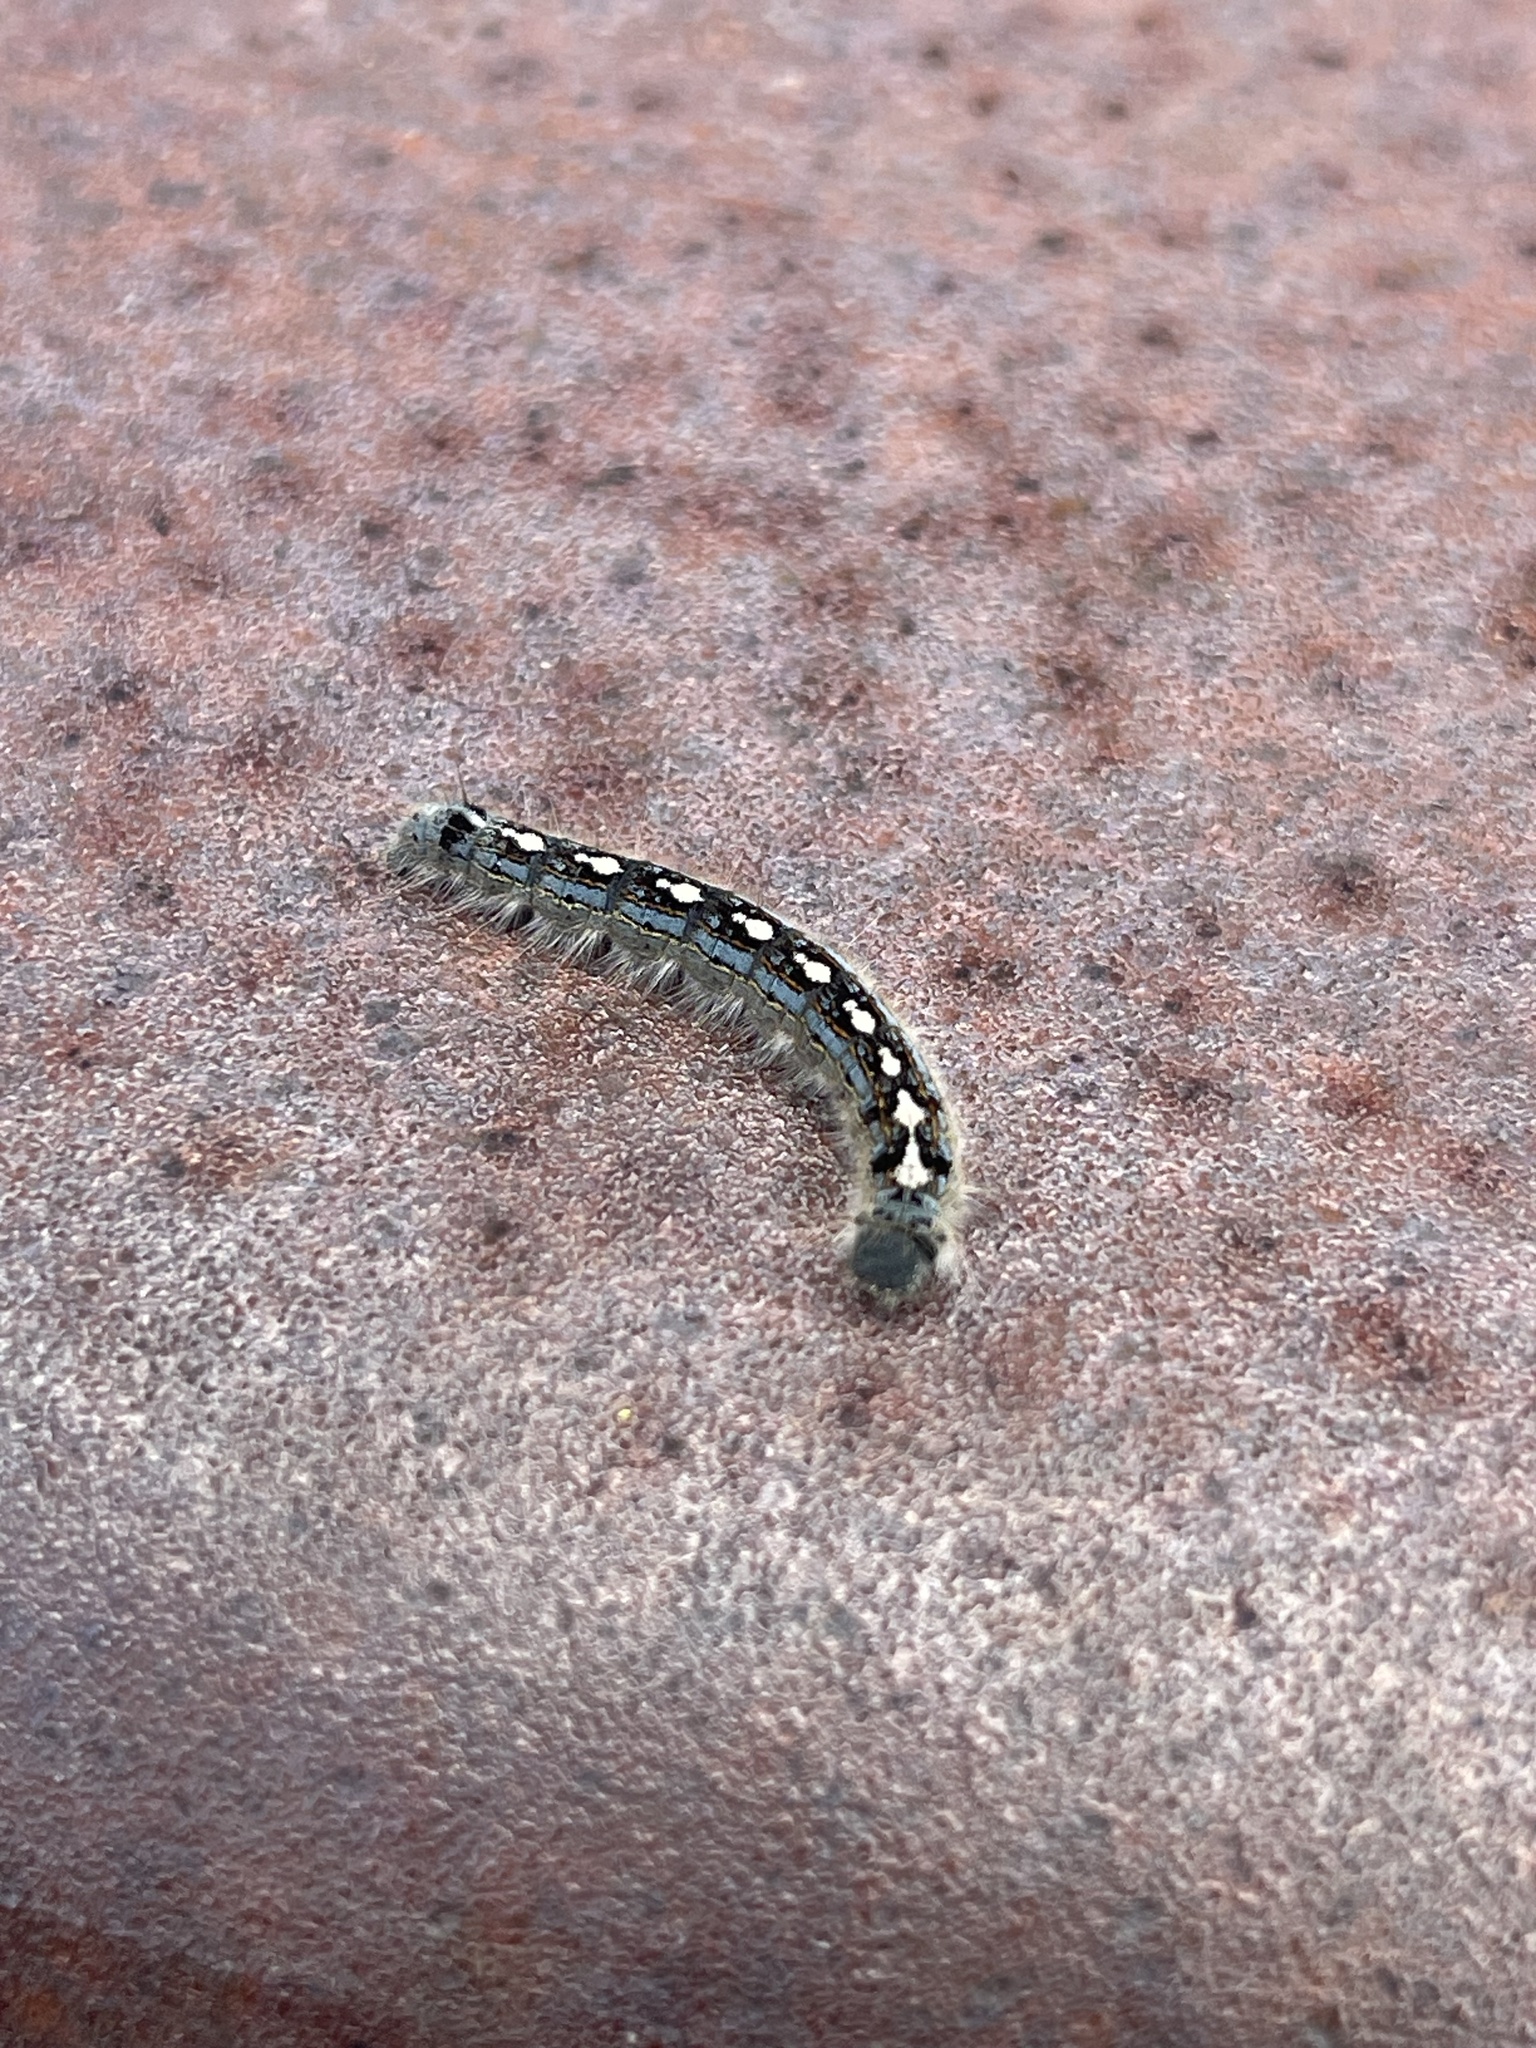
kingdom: Animalia
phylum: Arthropoda
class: Insecta
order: Lepidoptera
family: Lasiocampidae
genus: Malacosoma
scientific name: Malacosoma disstria
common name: Forest tent caterpillar
